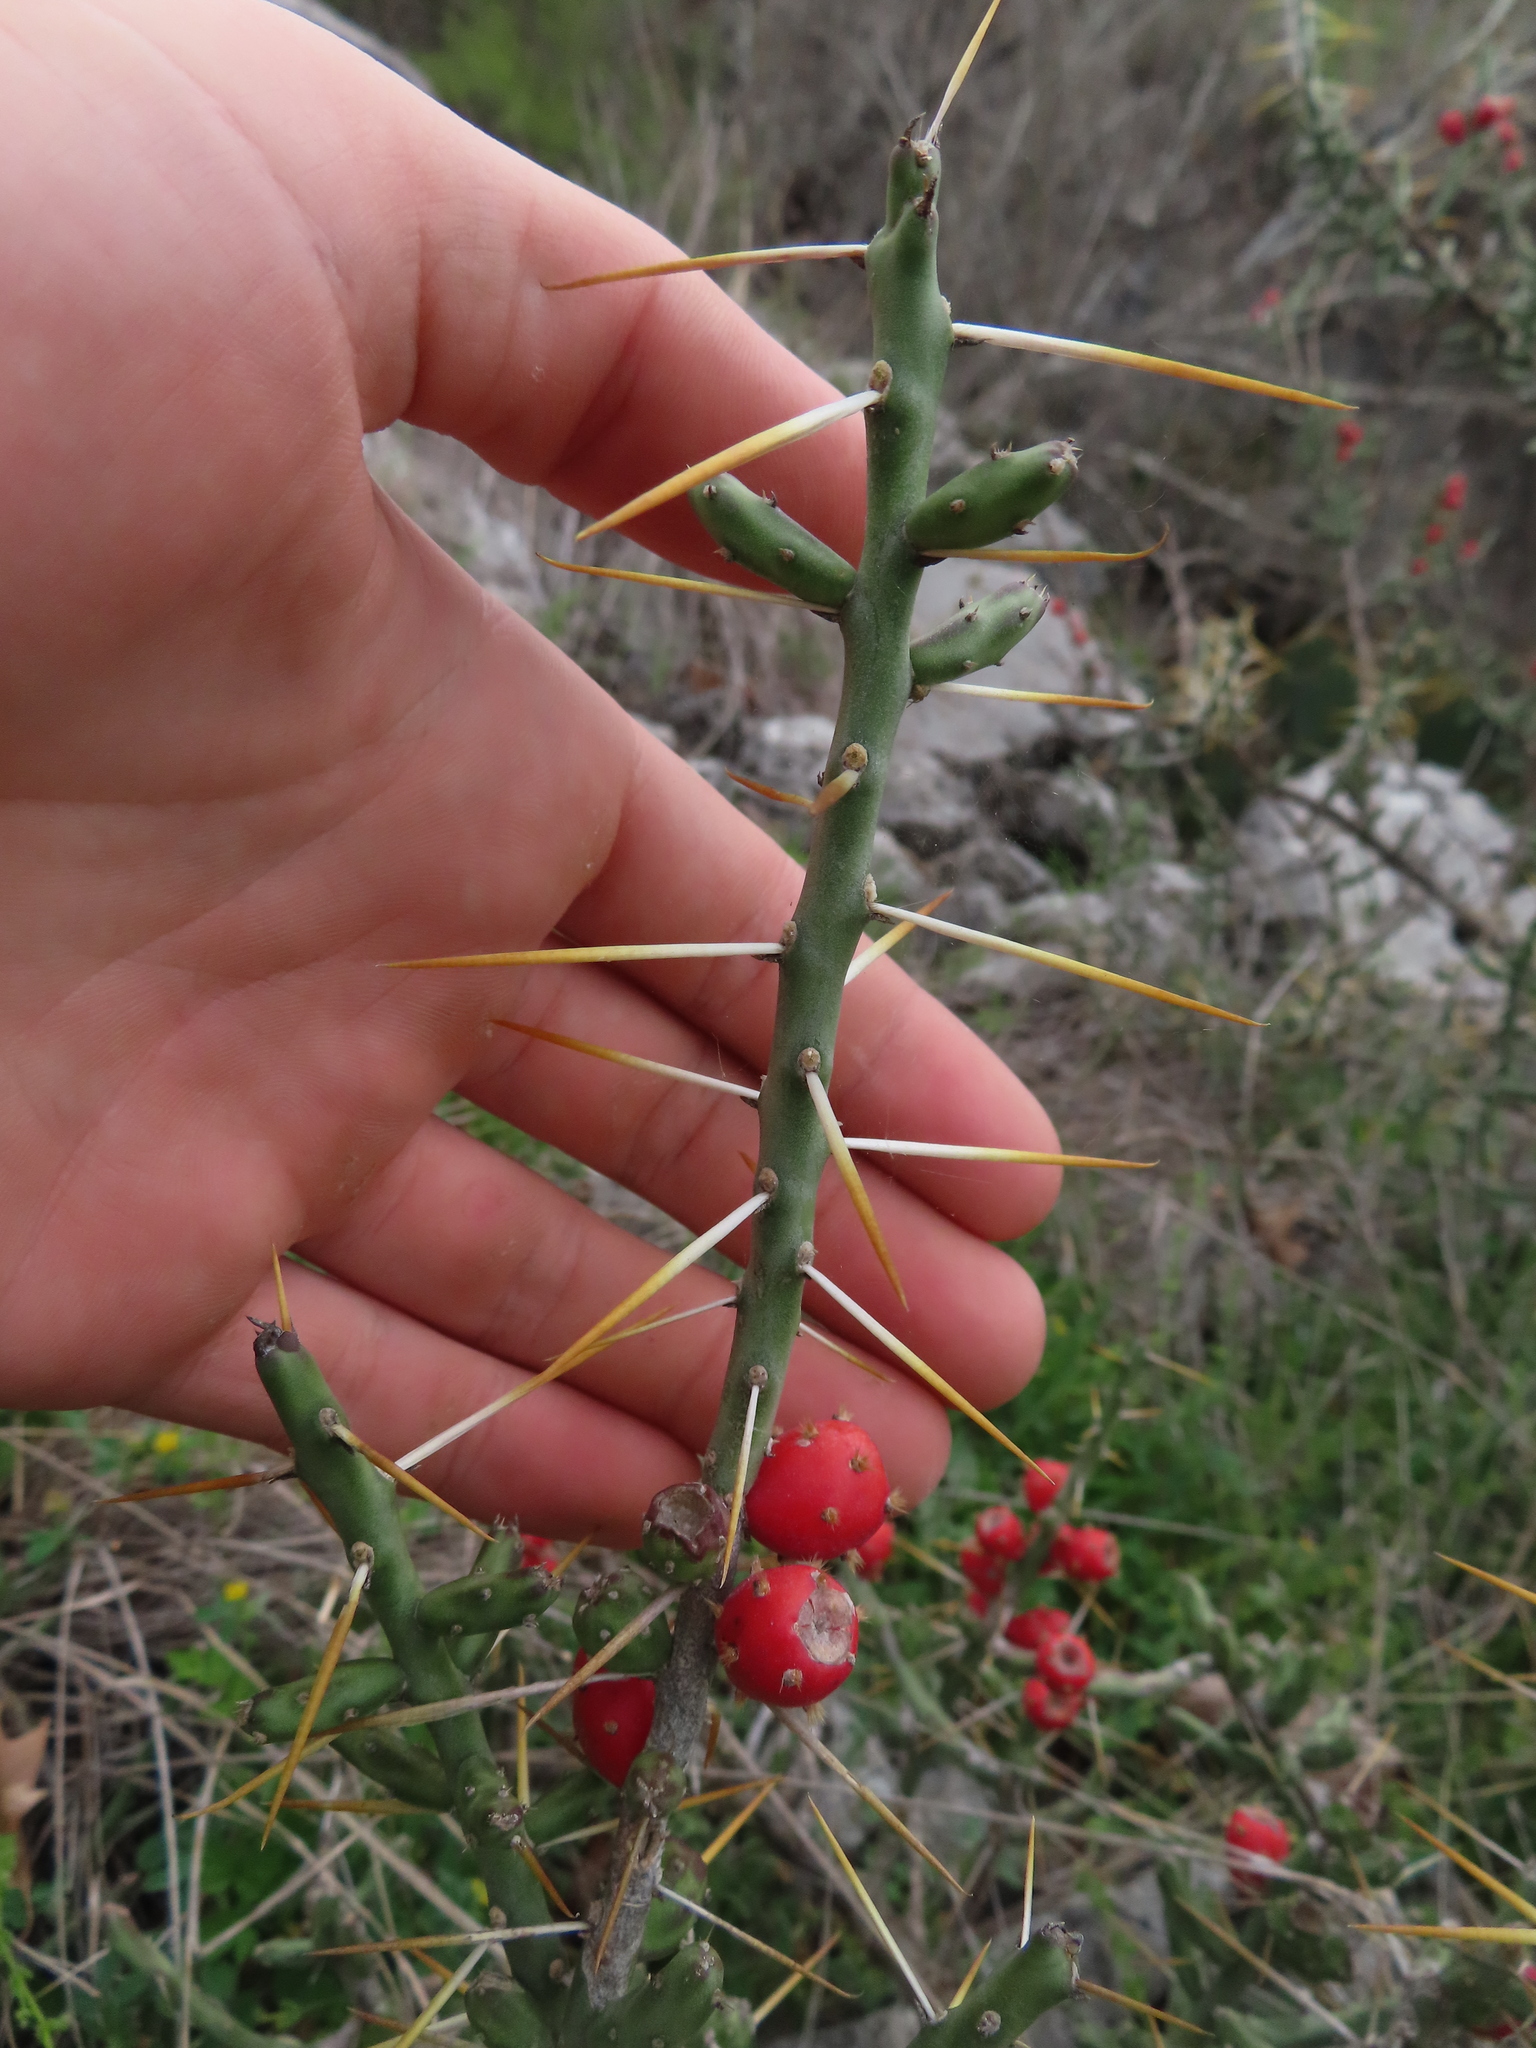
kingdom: Plantae
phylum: Tracheophyta
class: Magnoliopsida
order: Caryophyllales
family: Cactaceae
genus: Cylindropuntia
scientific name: Cylindropuntia leptocaulis
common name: Christmas cactus
